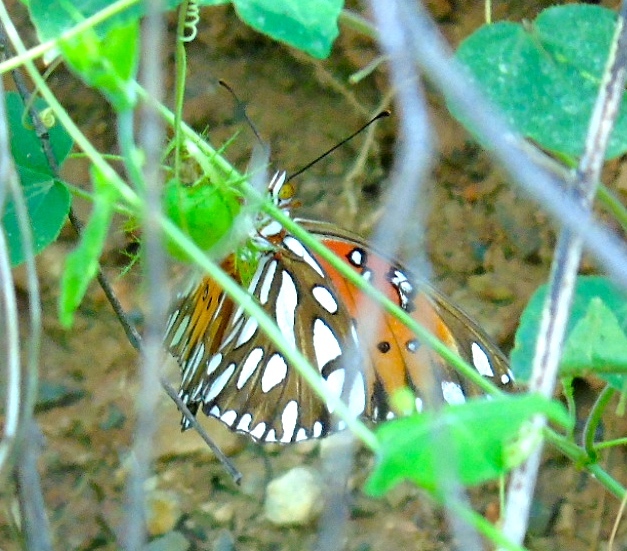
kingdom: Animalia
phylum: Arthropoda
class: Insecta
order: Lepidoptera
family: Nymphalidae
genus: Dione
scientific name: Dione vanillae
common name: Gulf fritillary
